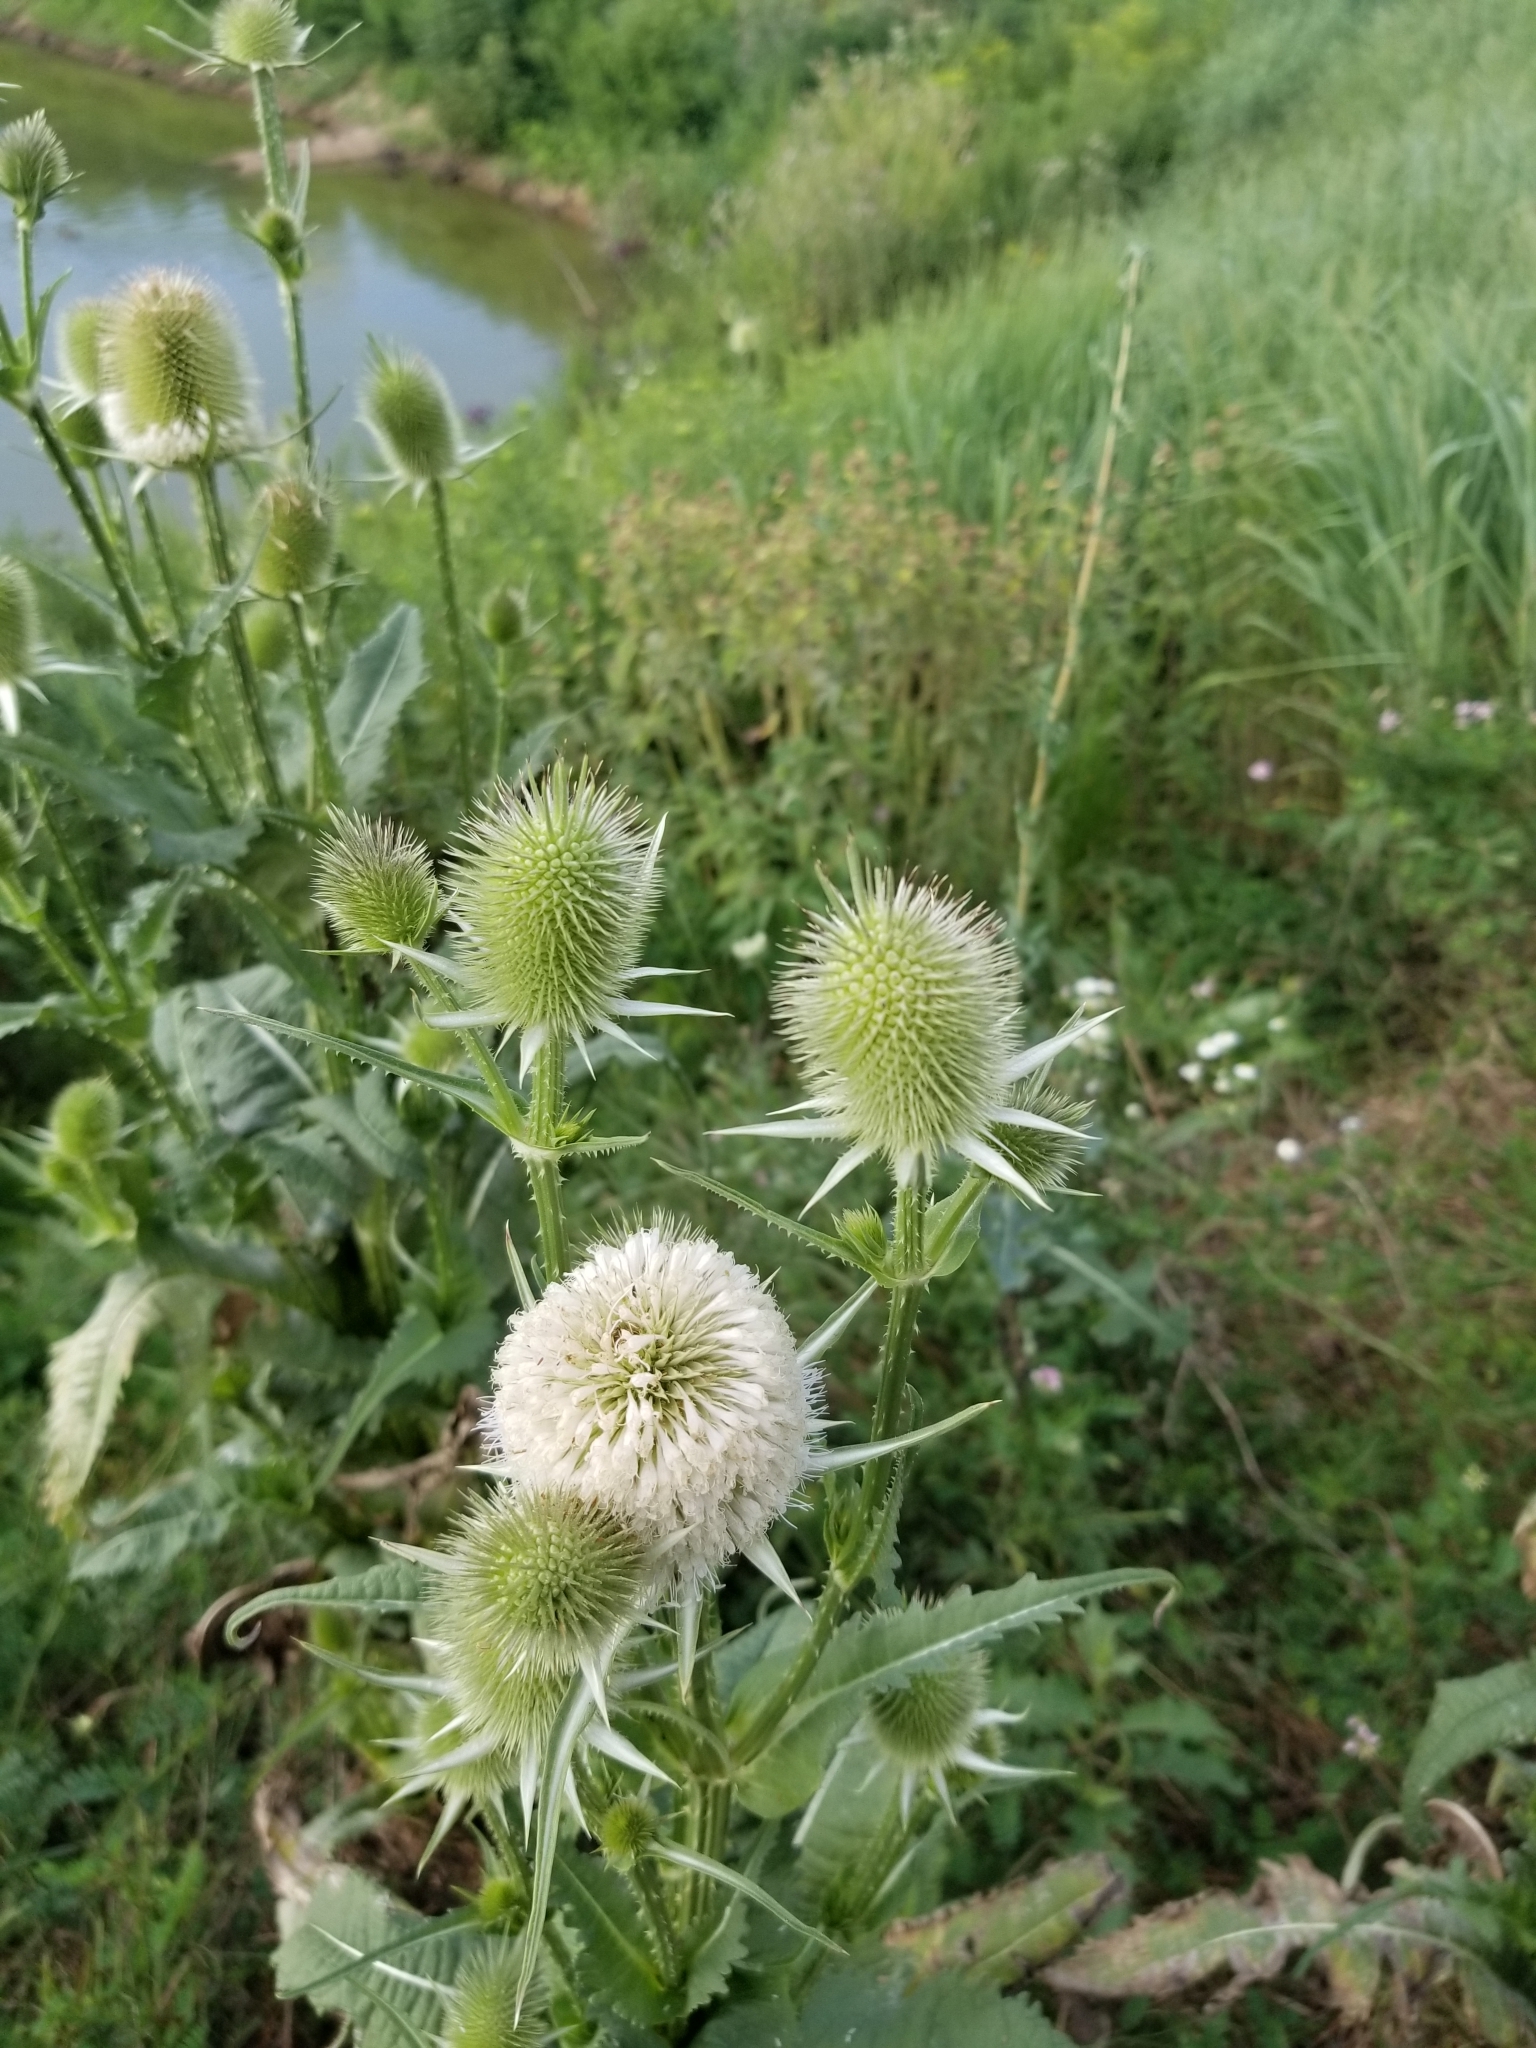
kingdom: Plantae
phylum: Tracheophyta
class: Magnoliopsida
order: Dipsacales
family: Caprifoliaceae
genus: Dipsacus
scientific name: Dipsacus laciniatus
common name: Cut-leaved teasel
